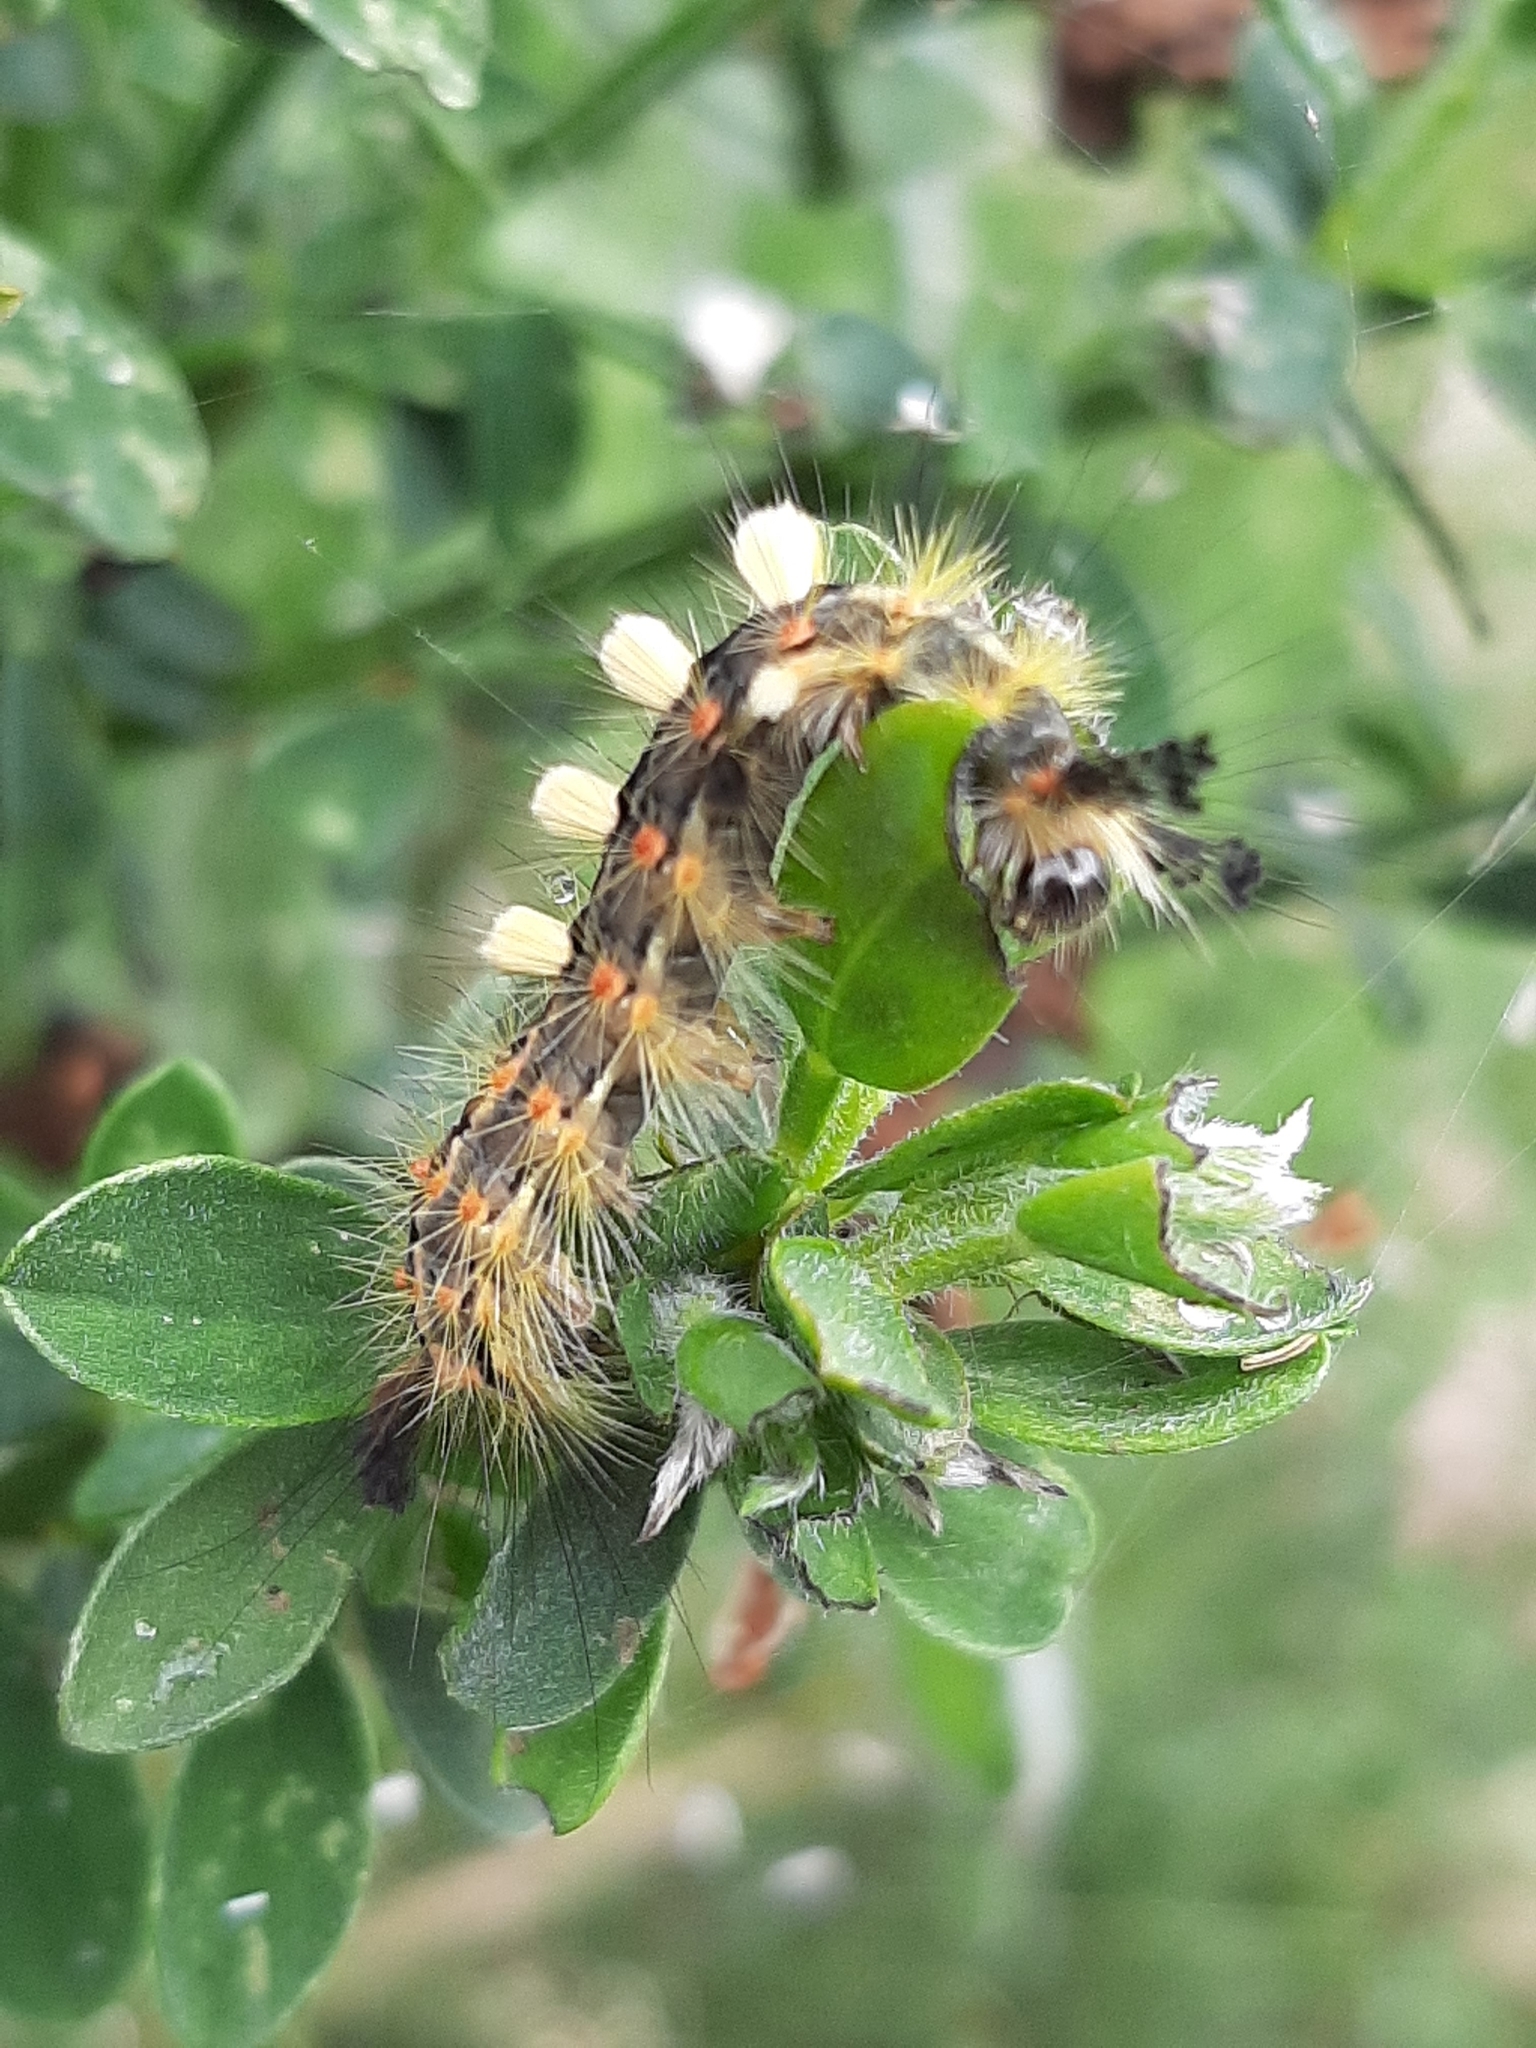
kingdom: Animalia
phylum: Arthropoda
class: Insecta
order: Lepidoptera
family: Erebidae
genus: Orgyia
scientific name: Orgyia antiqua
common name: Vapourer
